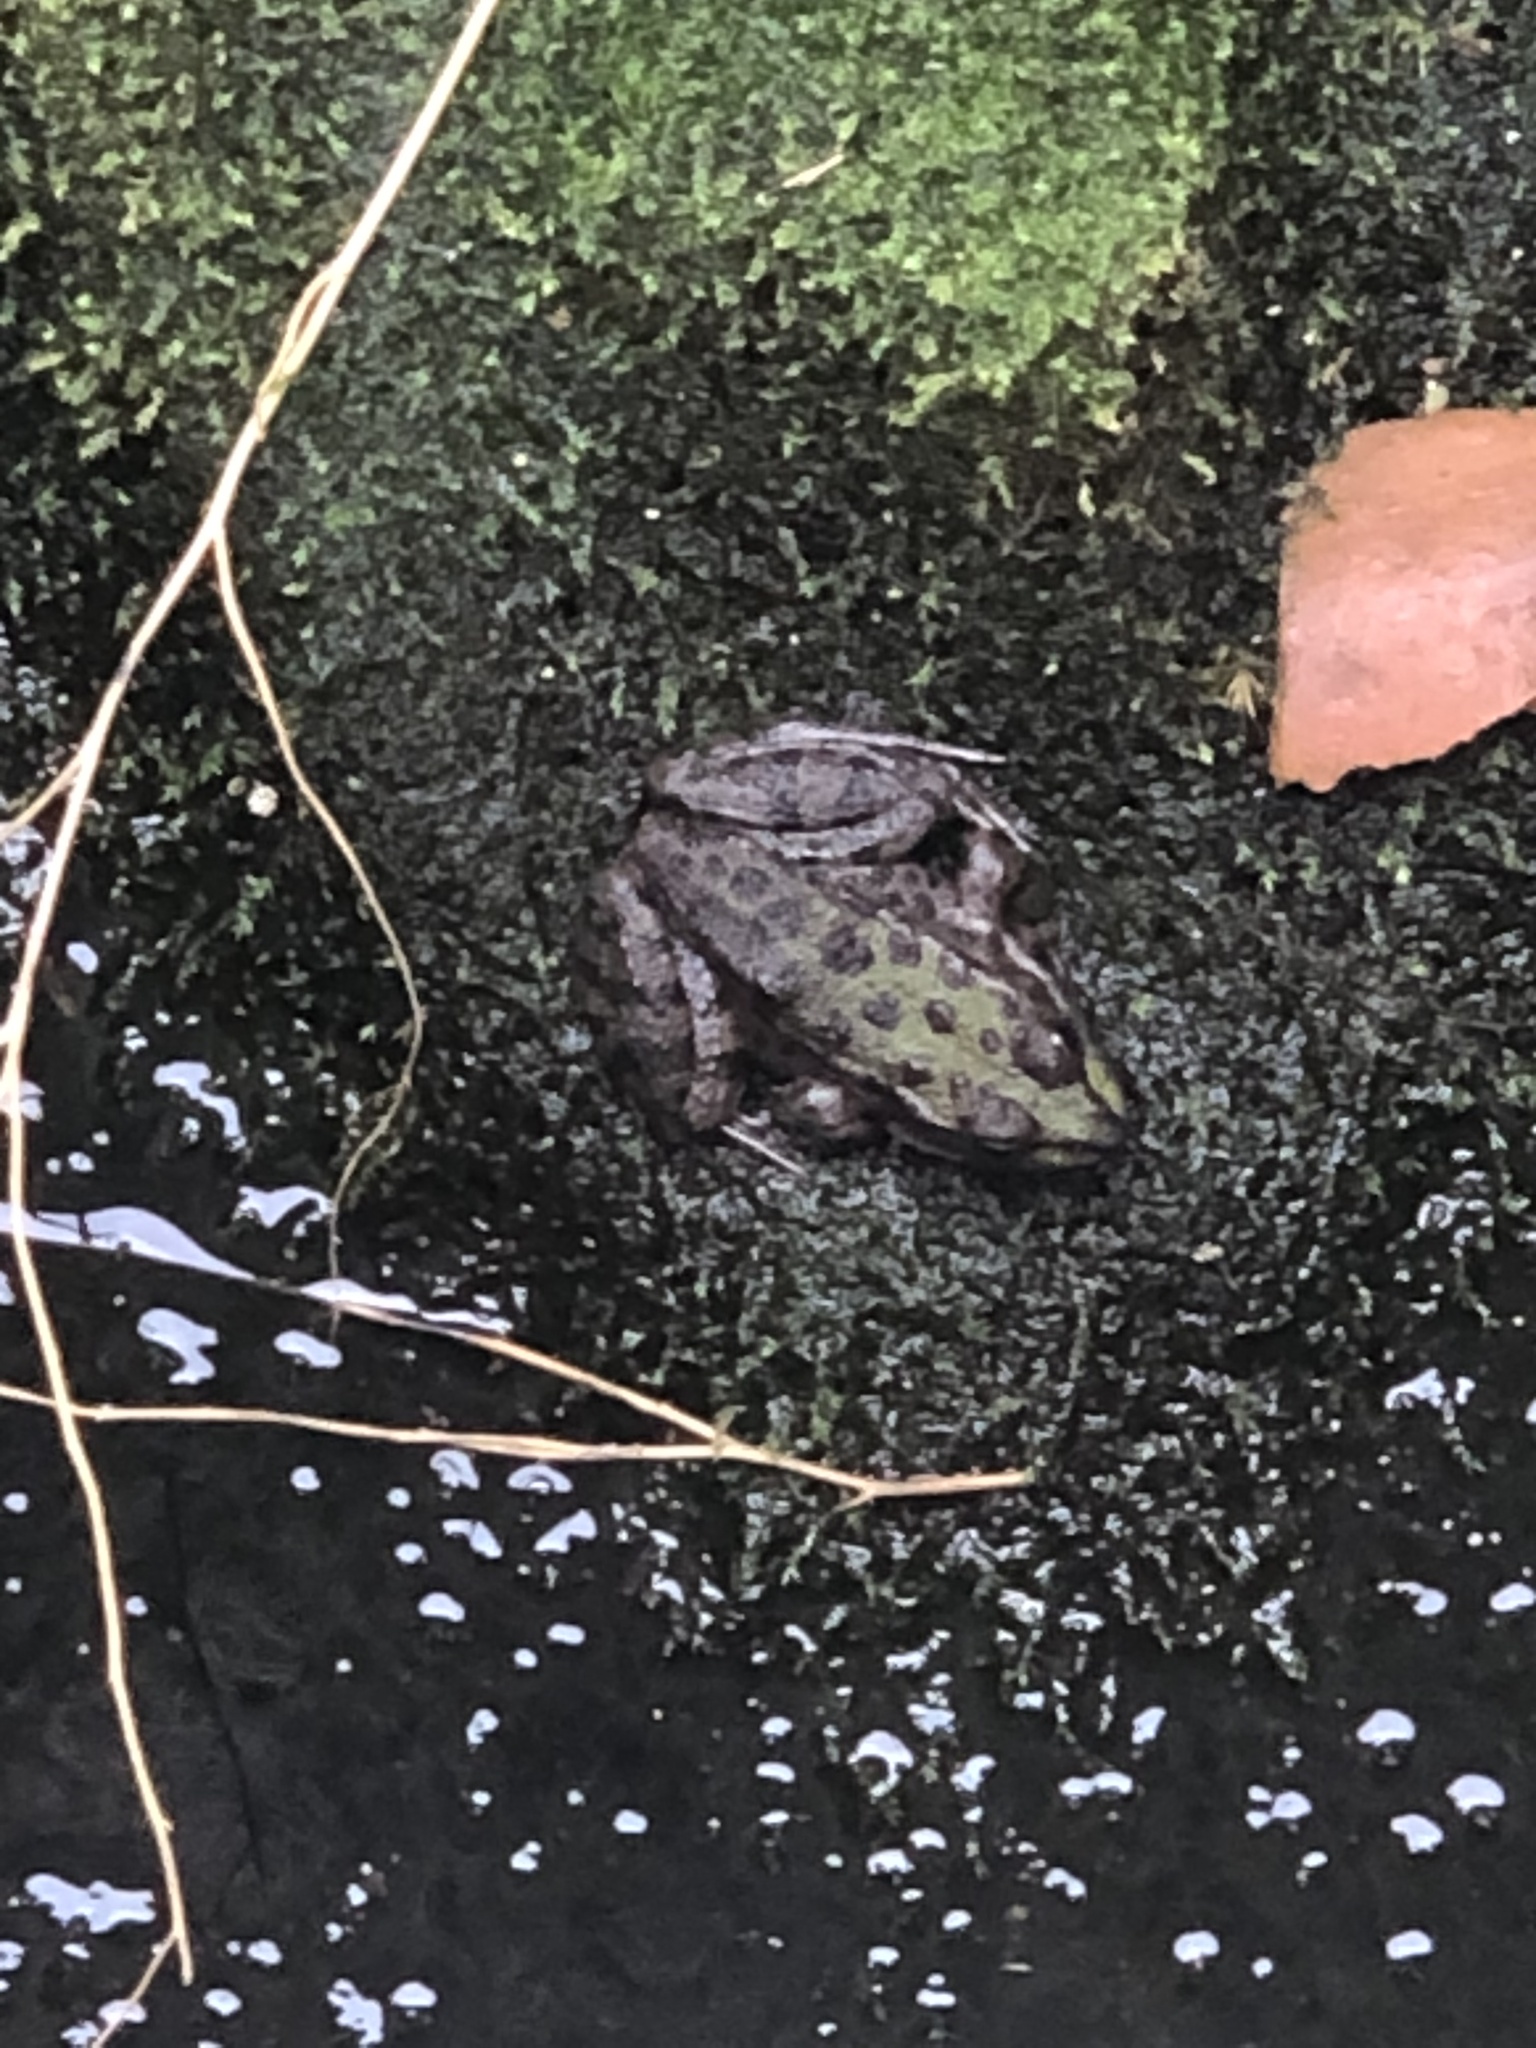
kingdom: Animalia
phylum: Chordata
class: Amphibia
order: Anura
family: Ranidae
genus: Pelophylax
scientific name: Pelophylax ridibundus
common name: Marsh frog
